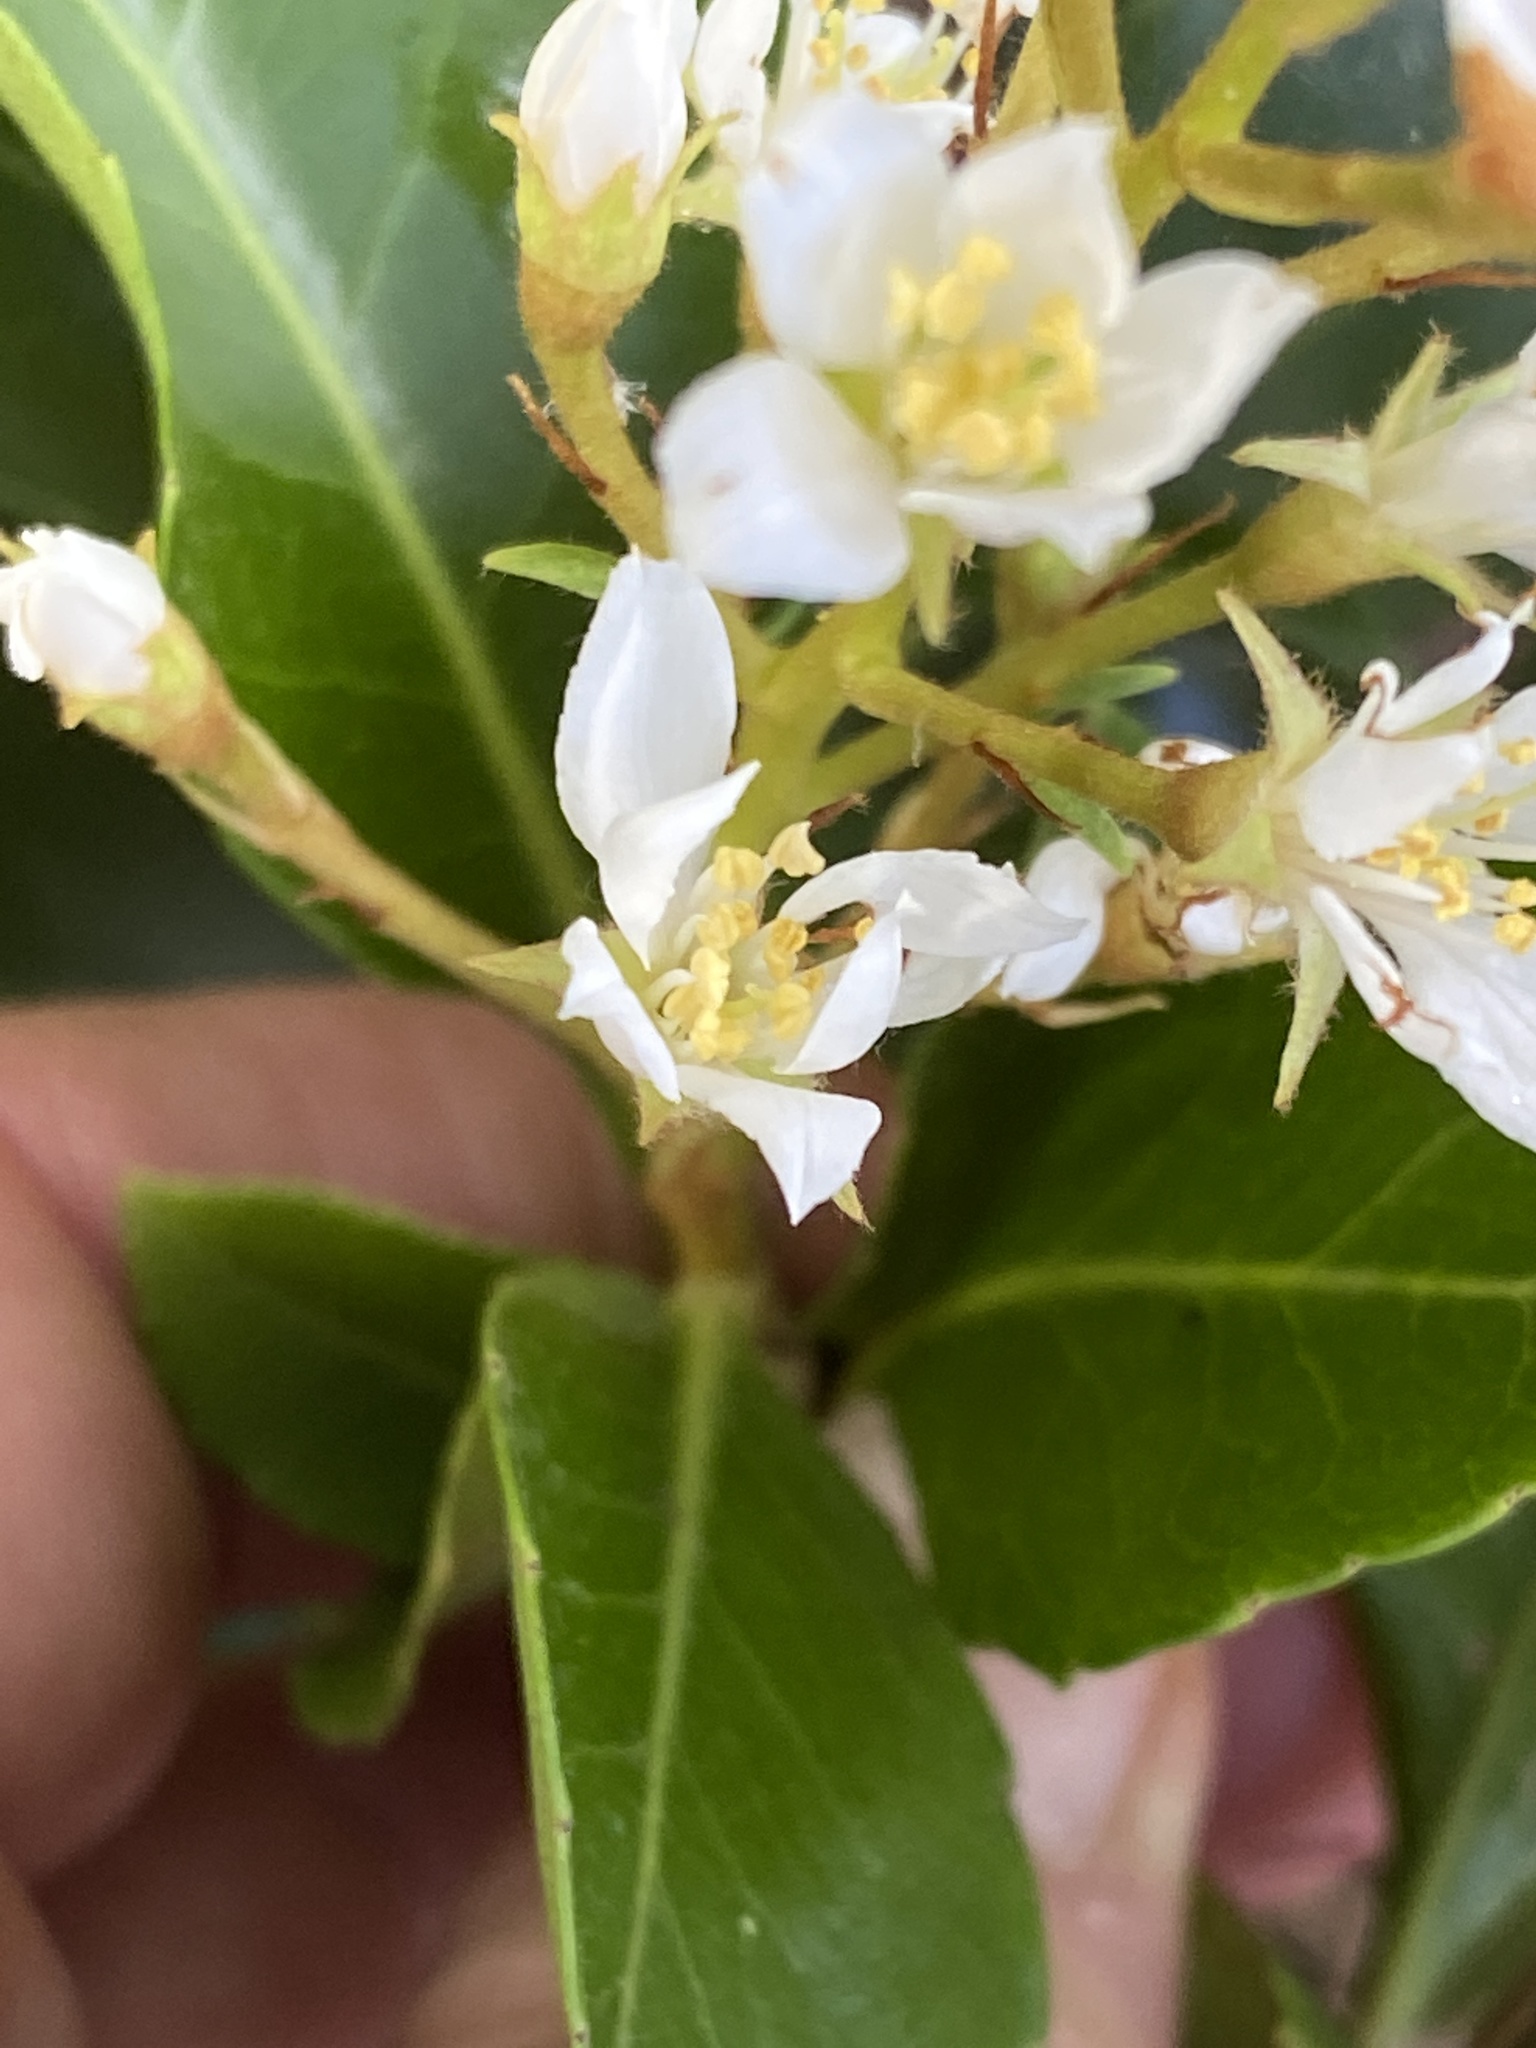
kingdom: Plantae
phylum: Tracheophyta
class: Magnoliopsida
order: Rosales
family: Rosaceae
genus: Rhaphiolepis
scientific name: Rhaphiolepis indica
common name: India-hawthorn
